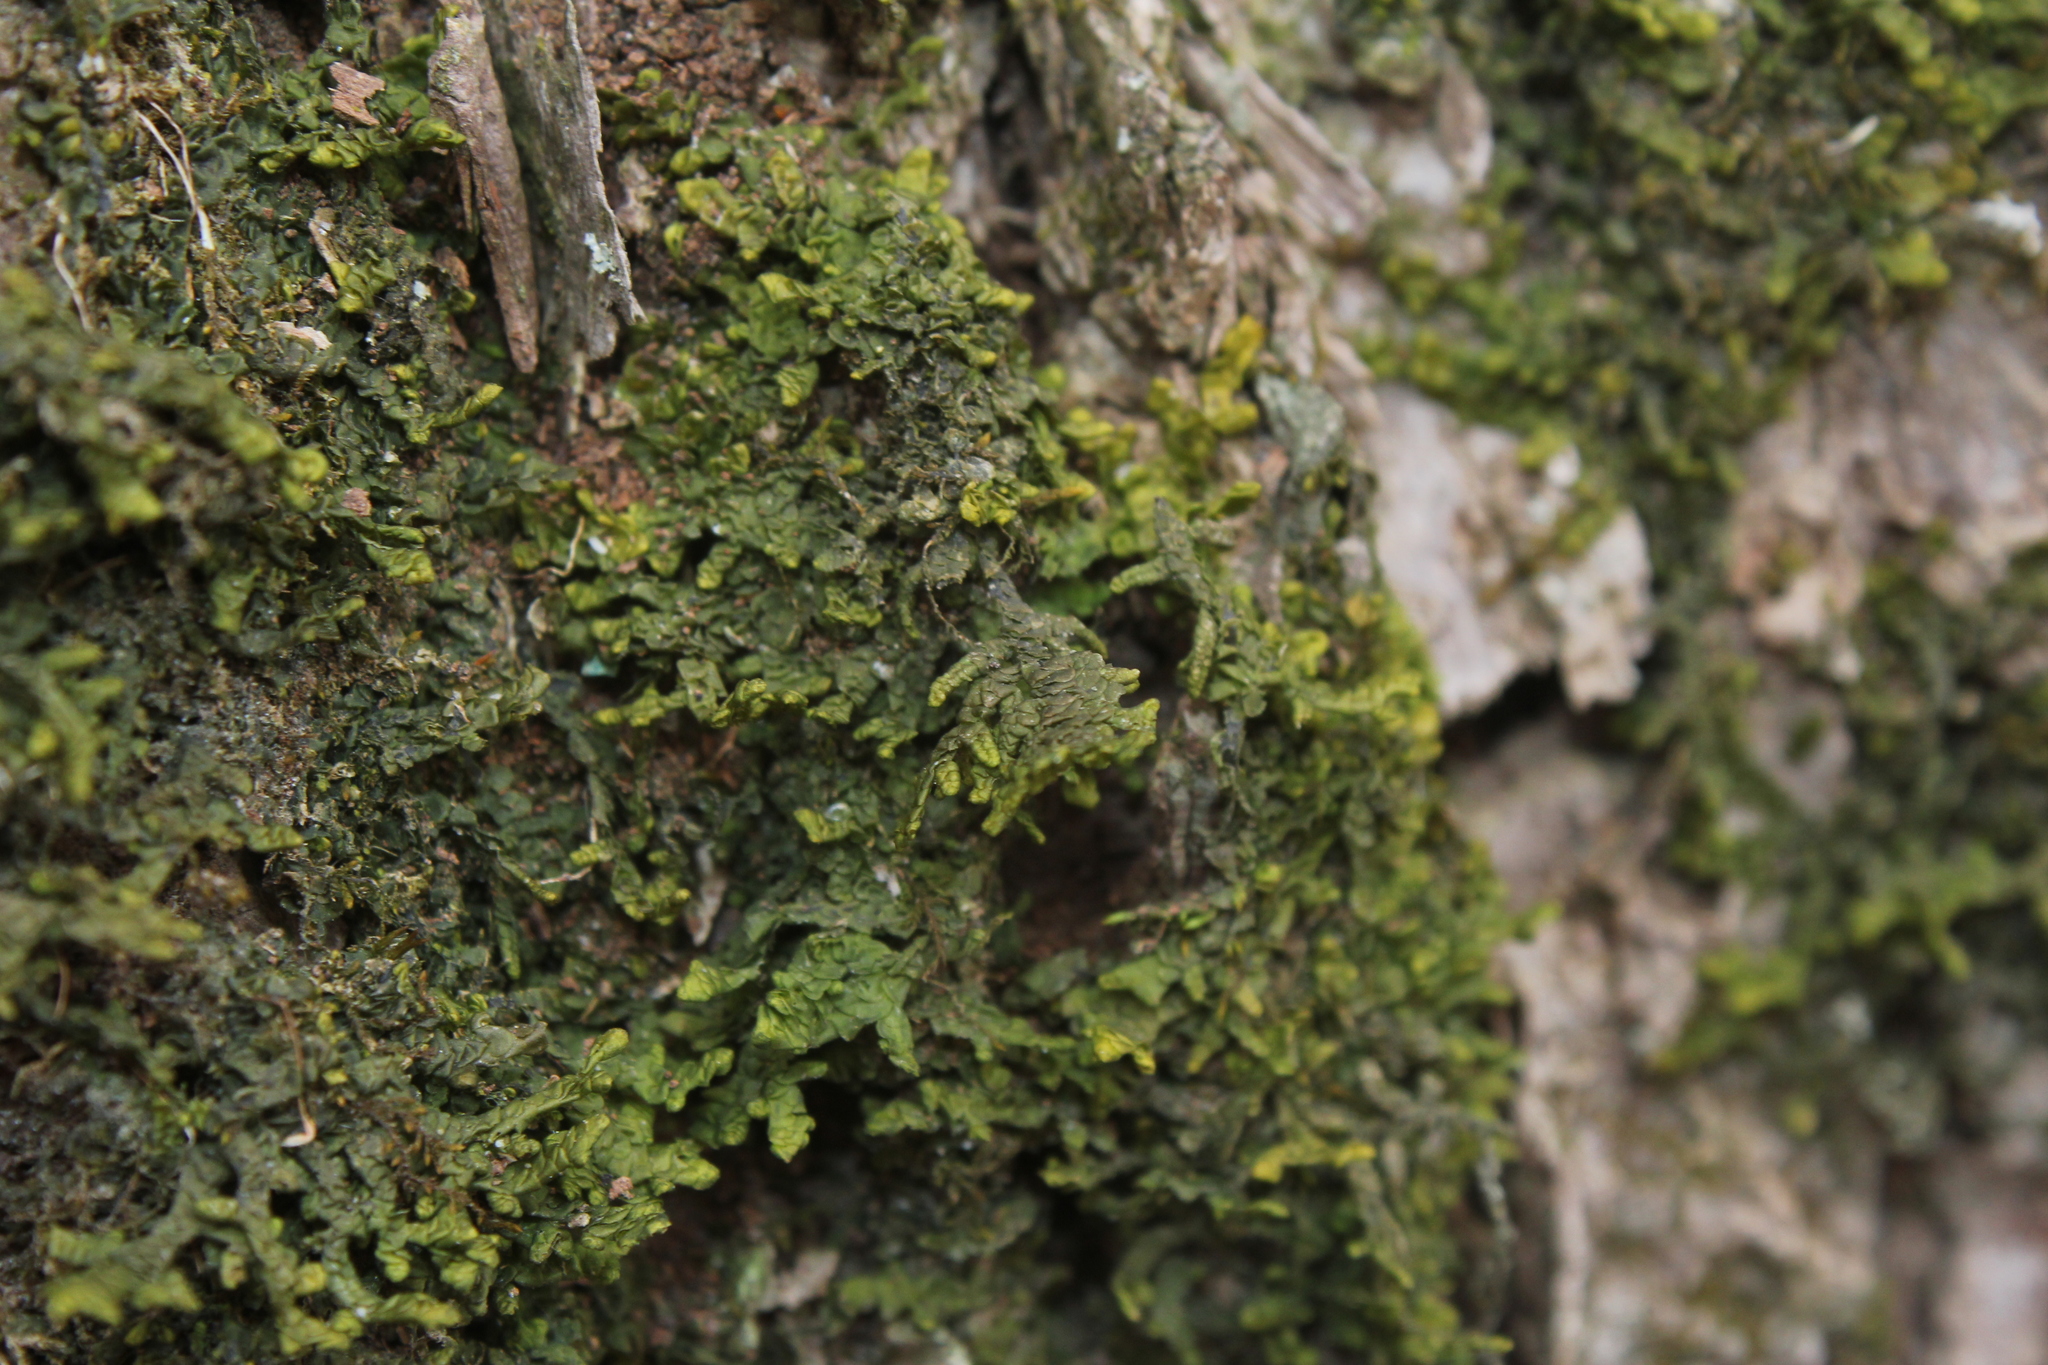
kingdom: Plantae
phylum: Marchantiophyta
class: Jungermanniopsida
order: Porellales
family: Porellaceae
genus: Porella
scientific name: Porella platyphylla
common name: Wall scalewort
